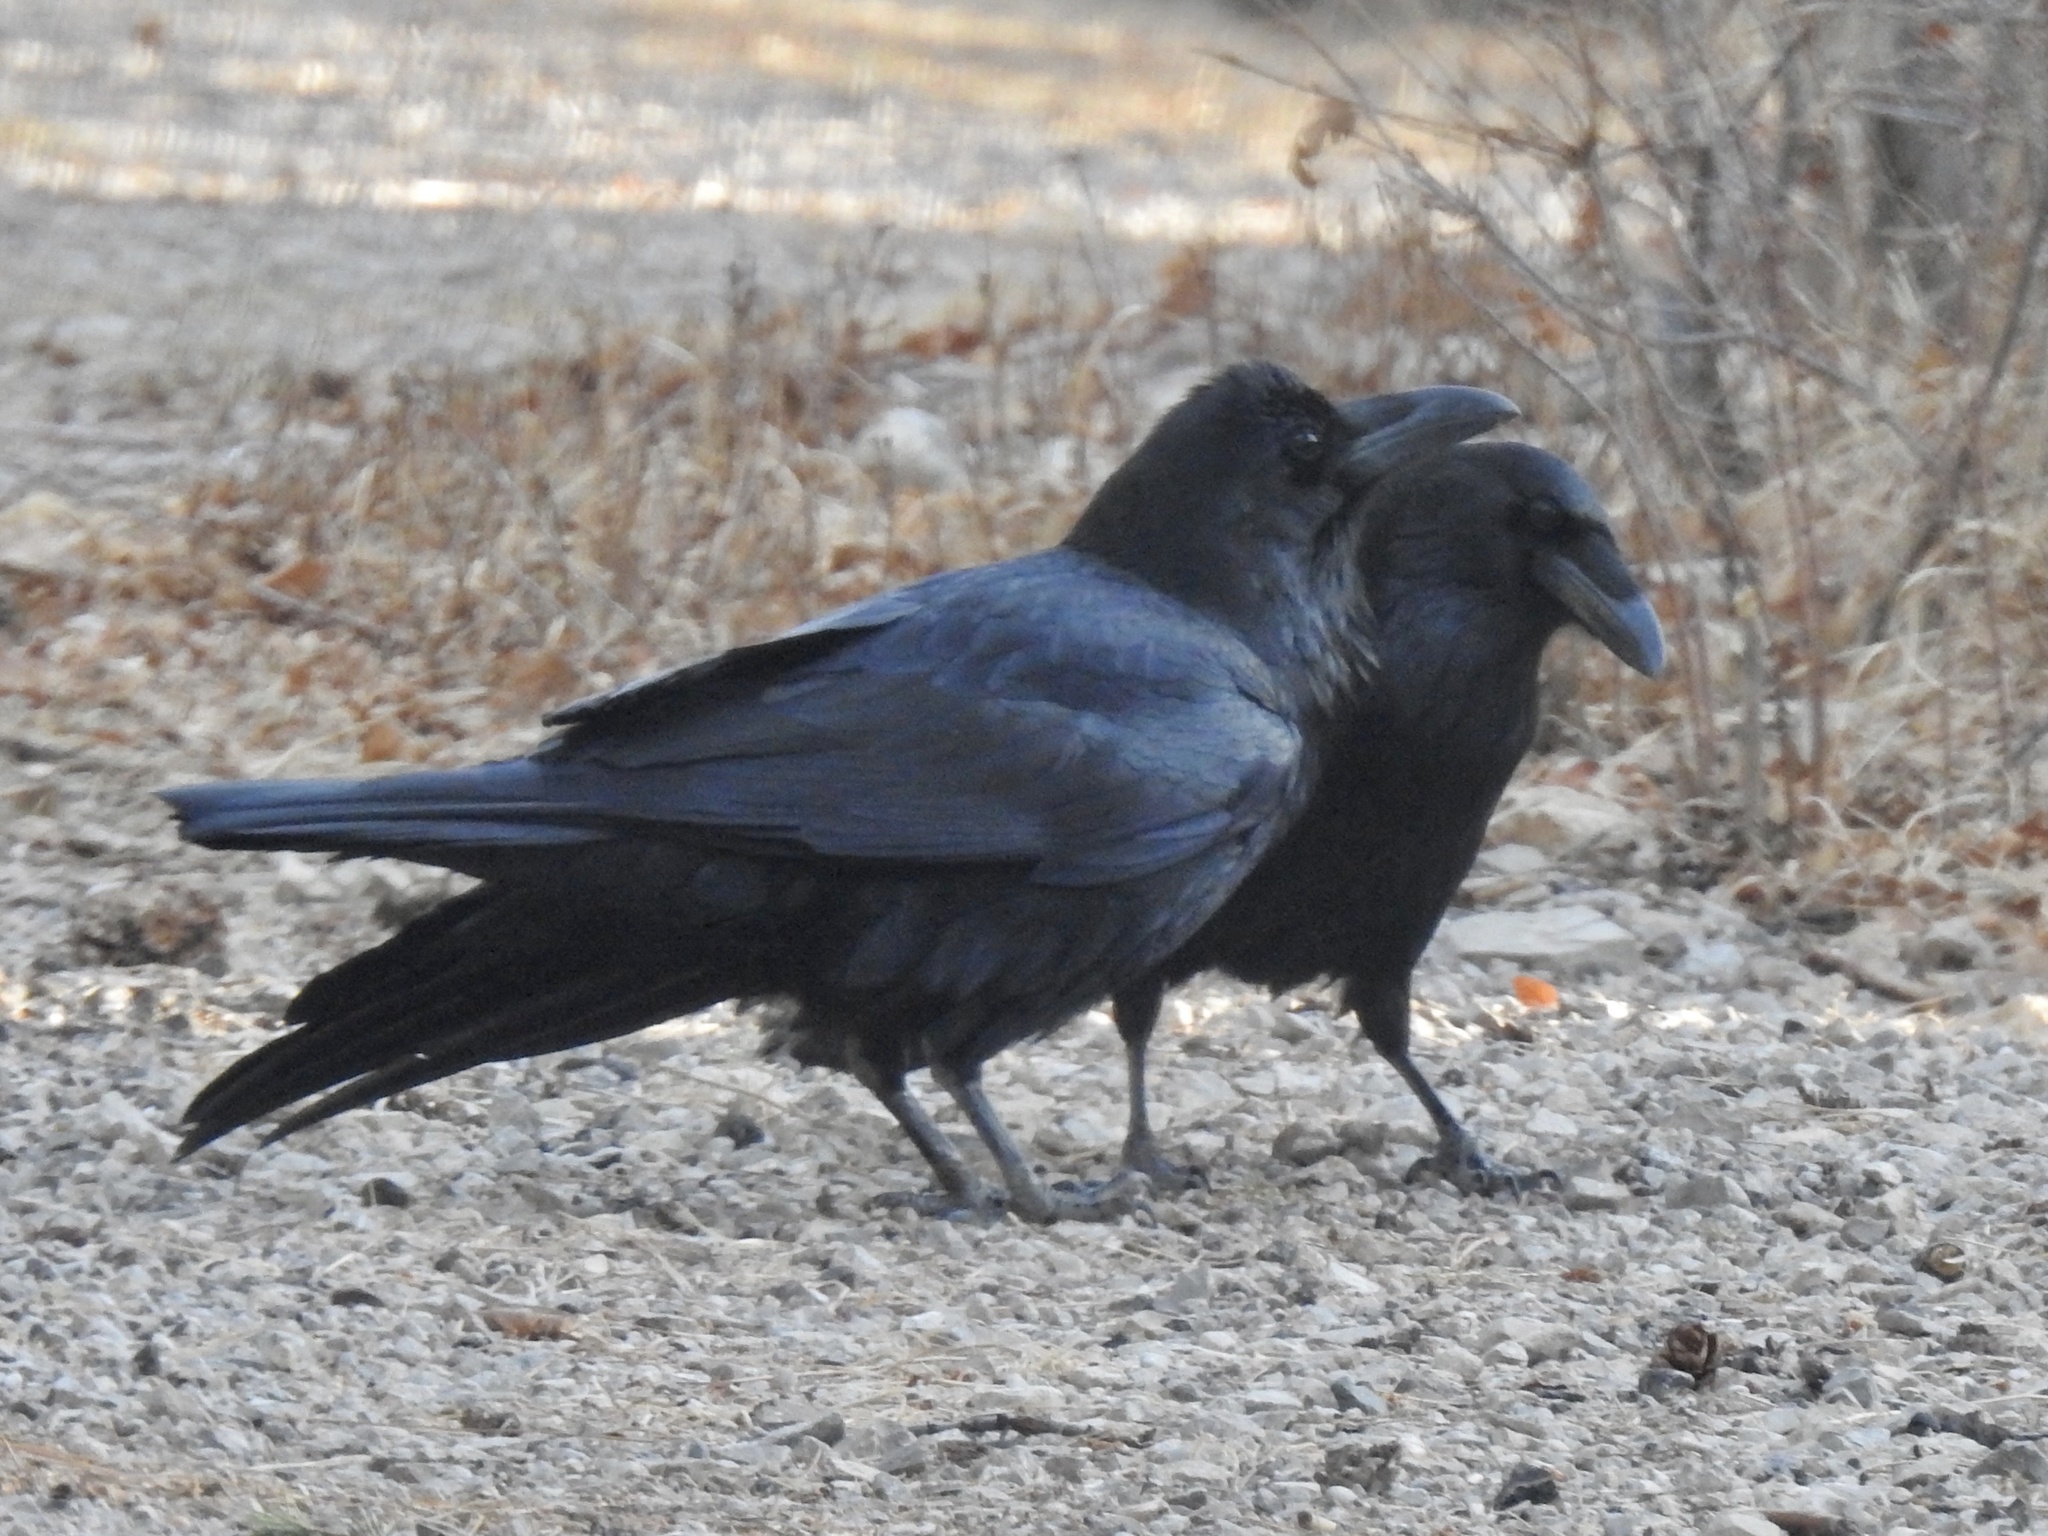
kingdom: Animalia
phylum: Chordata
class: Aves
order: Passeriformes
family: Corvidae
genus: Corvus
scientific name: Corvus corax
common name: Common raven
